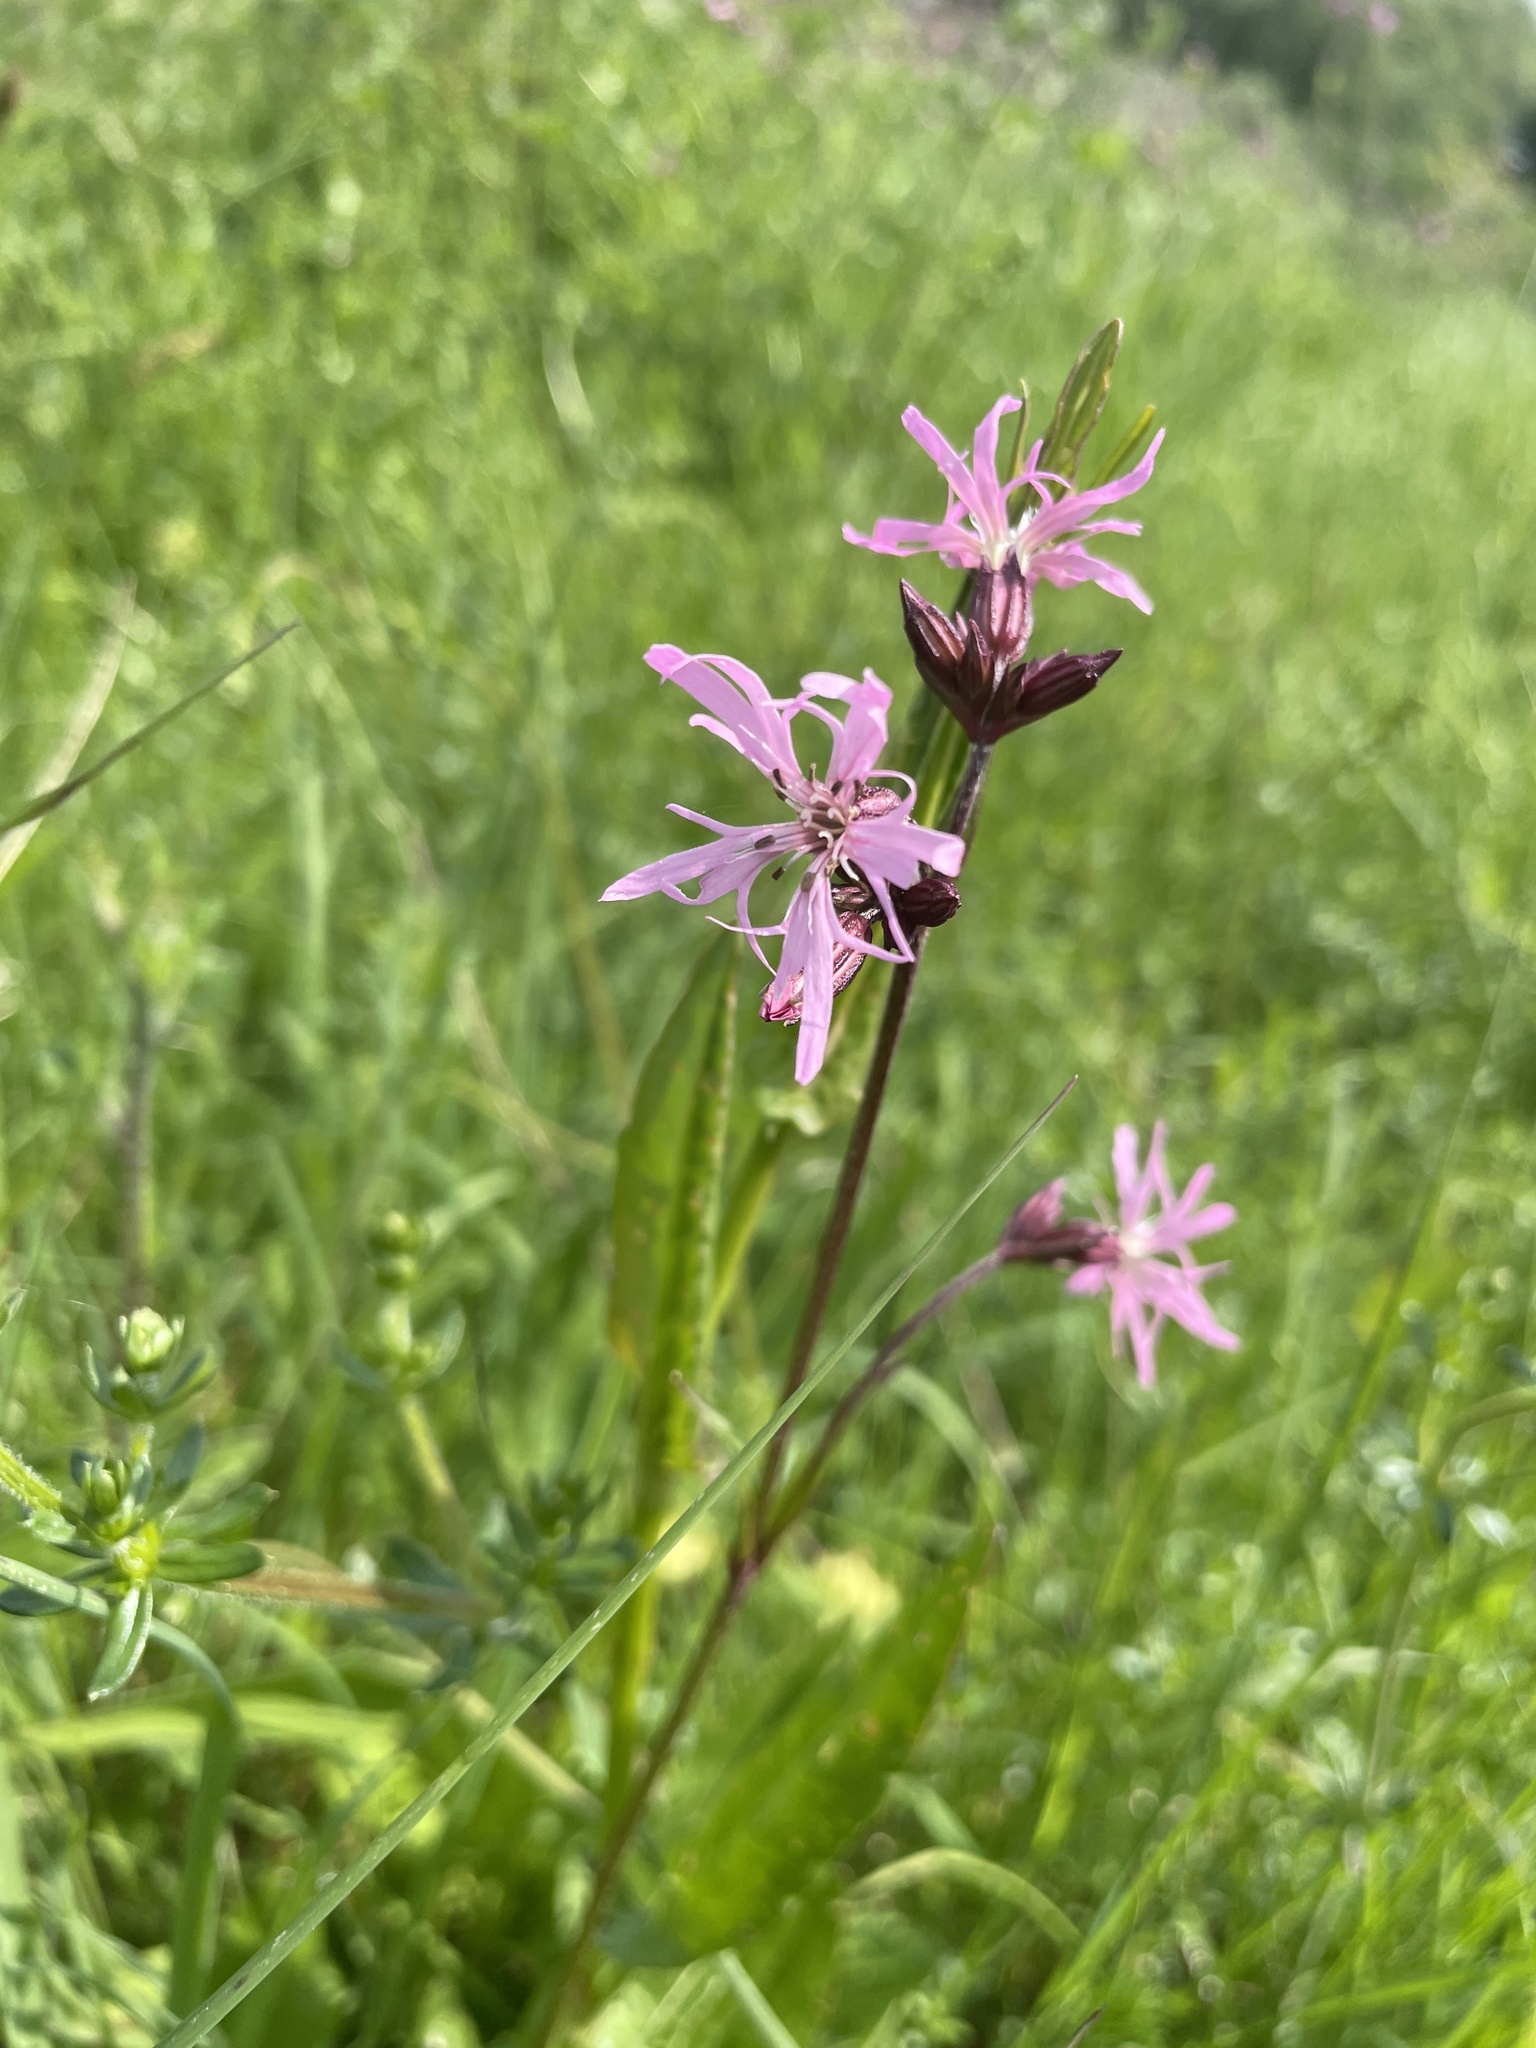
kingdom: Plantae
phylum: Tracheophyta
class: Magnoliopsida
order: Caryophyllales
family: Caryophyllaceae
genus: Silene
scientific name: Silene flos-cuculi
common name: Ragged-robin
